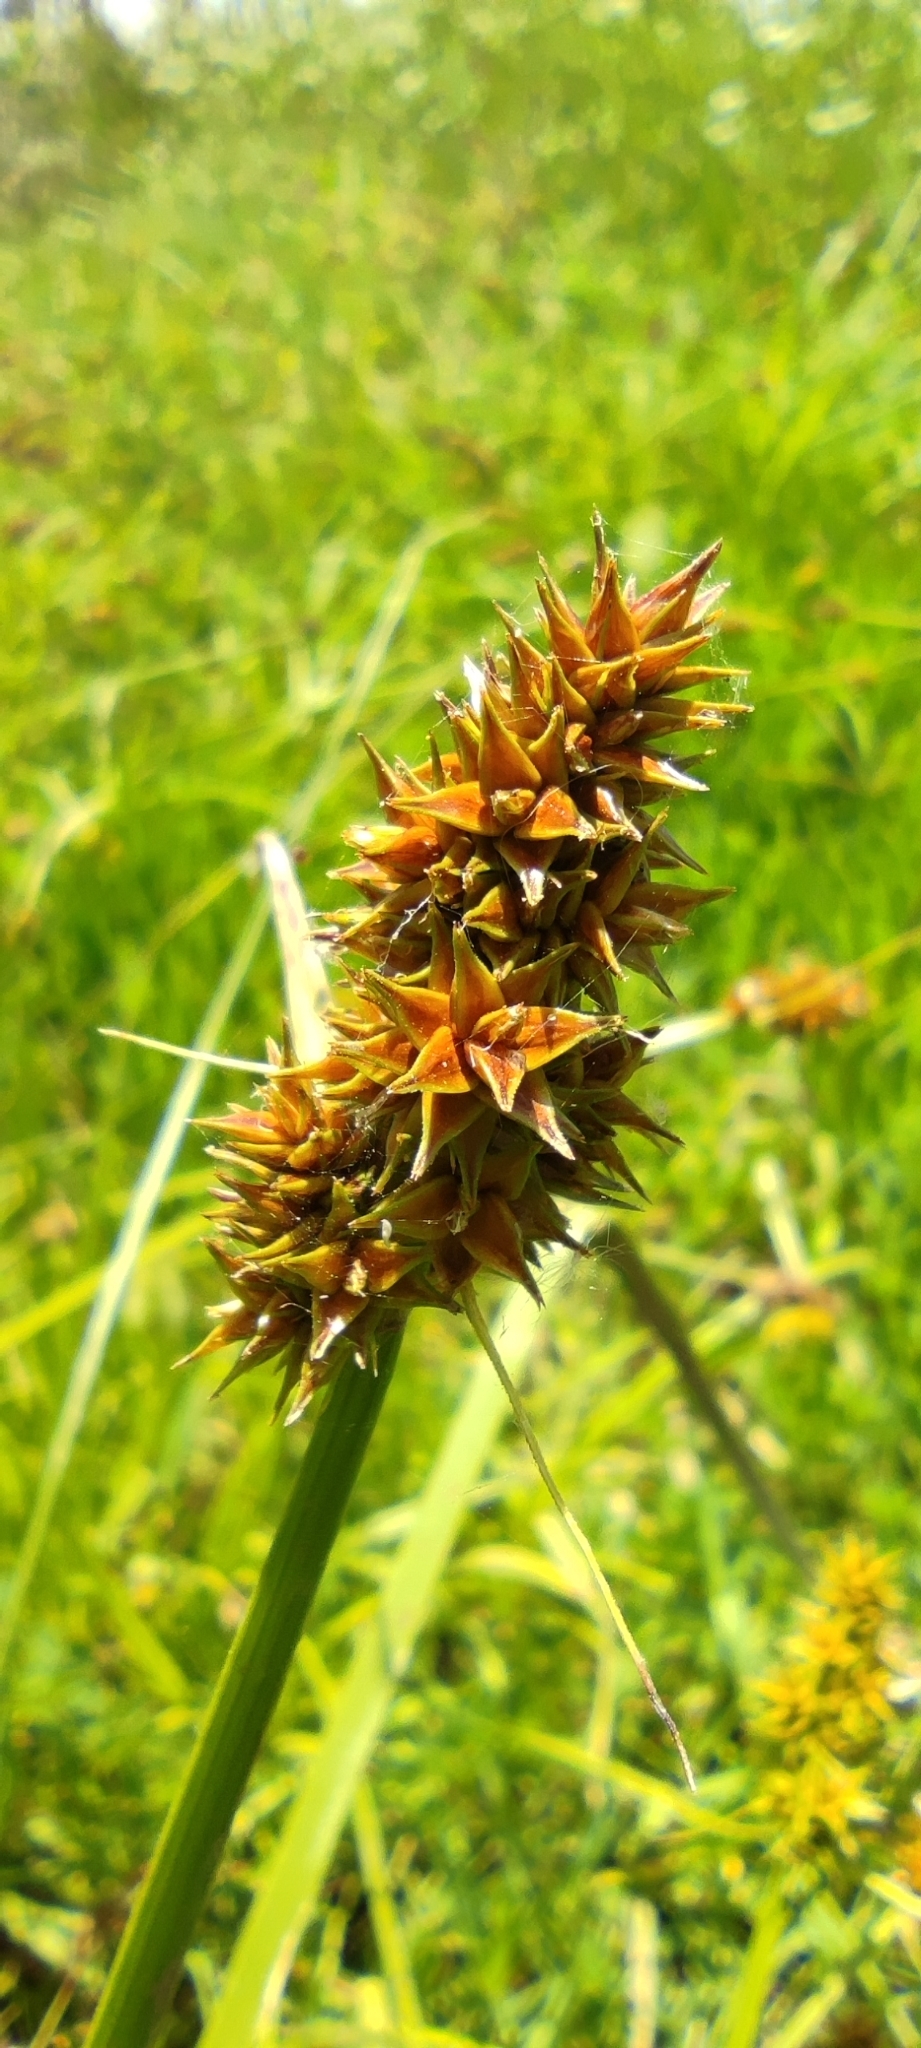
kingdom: Plantae
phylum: Tracheophyta
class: Liliopsida
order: Poales
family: Cyperaceae
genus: Carex
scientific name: Carex otrubae
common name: False fox-sedge
